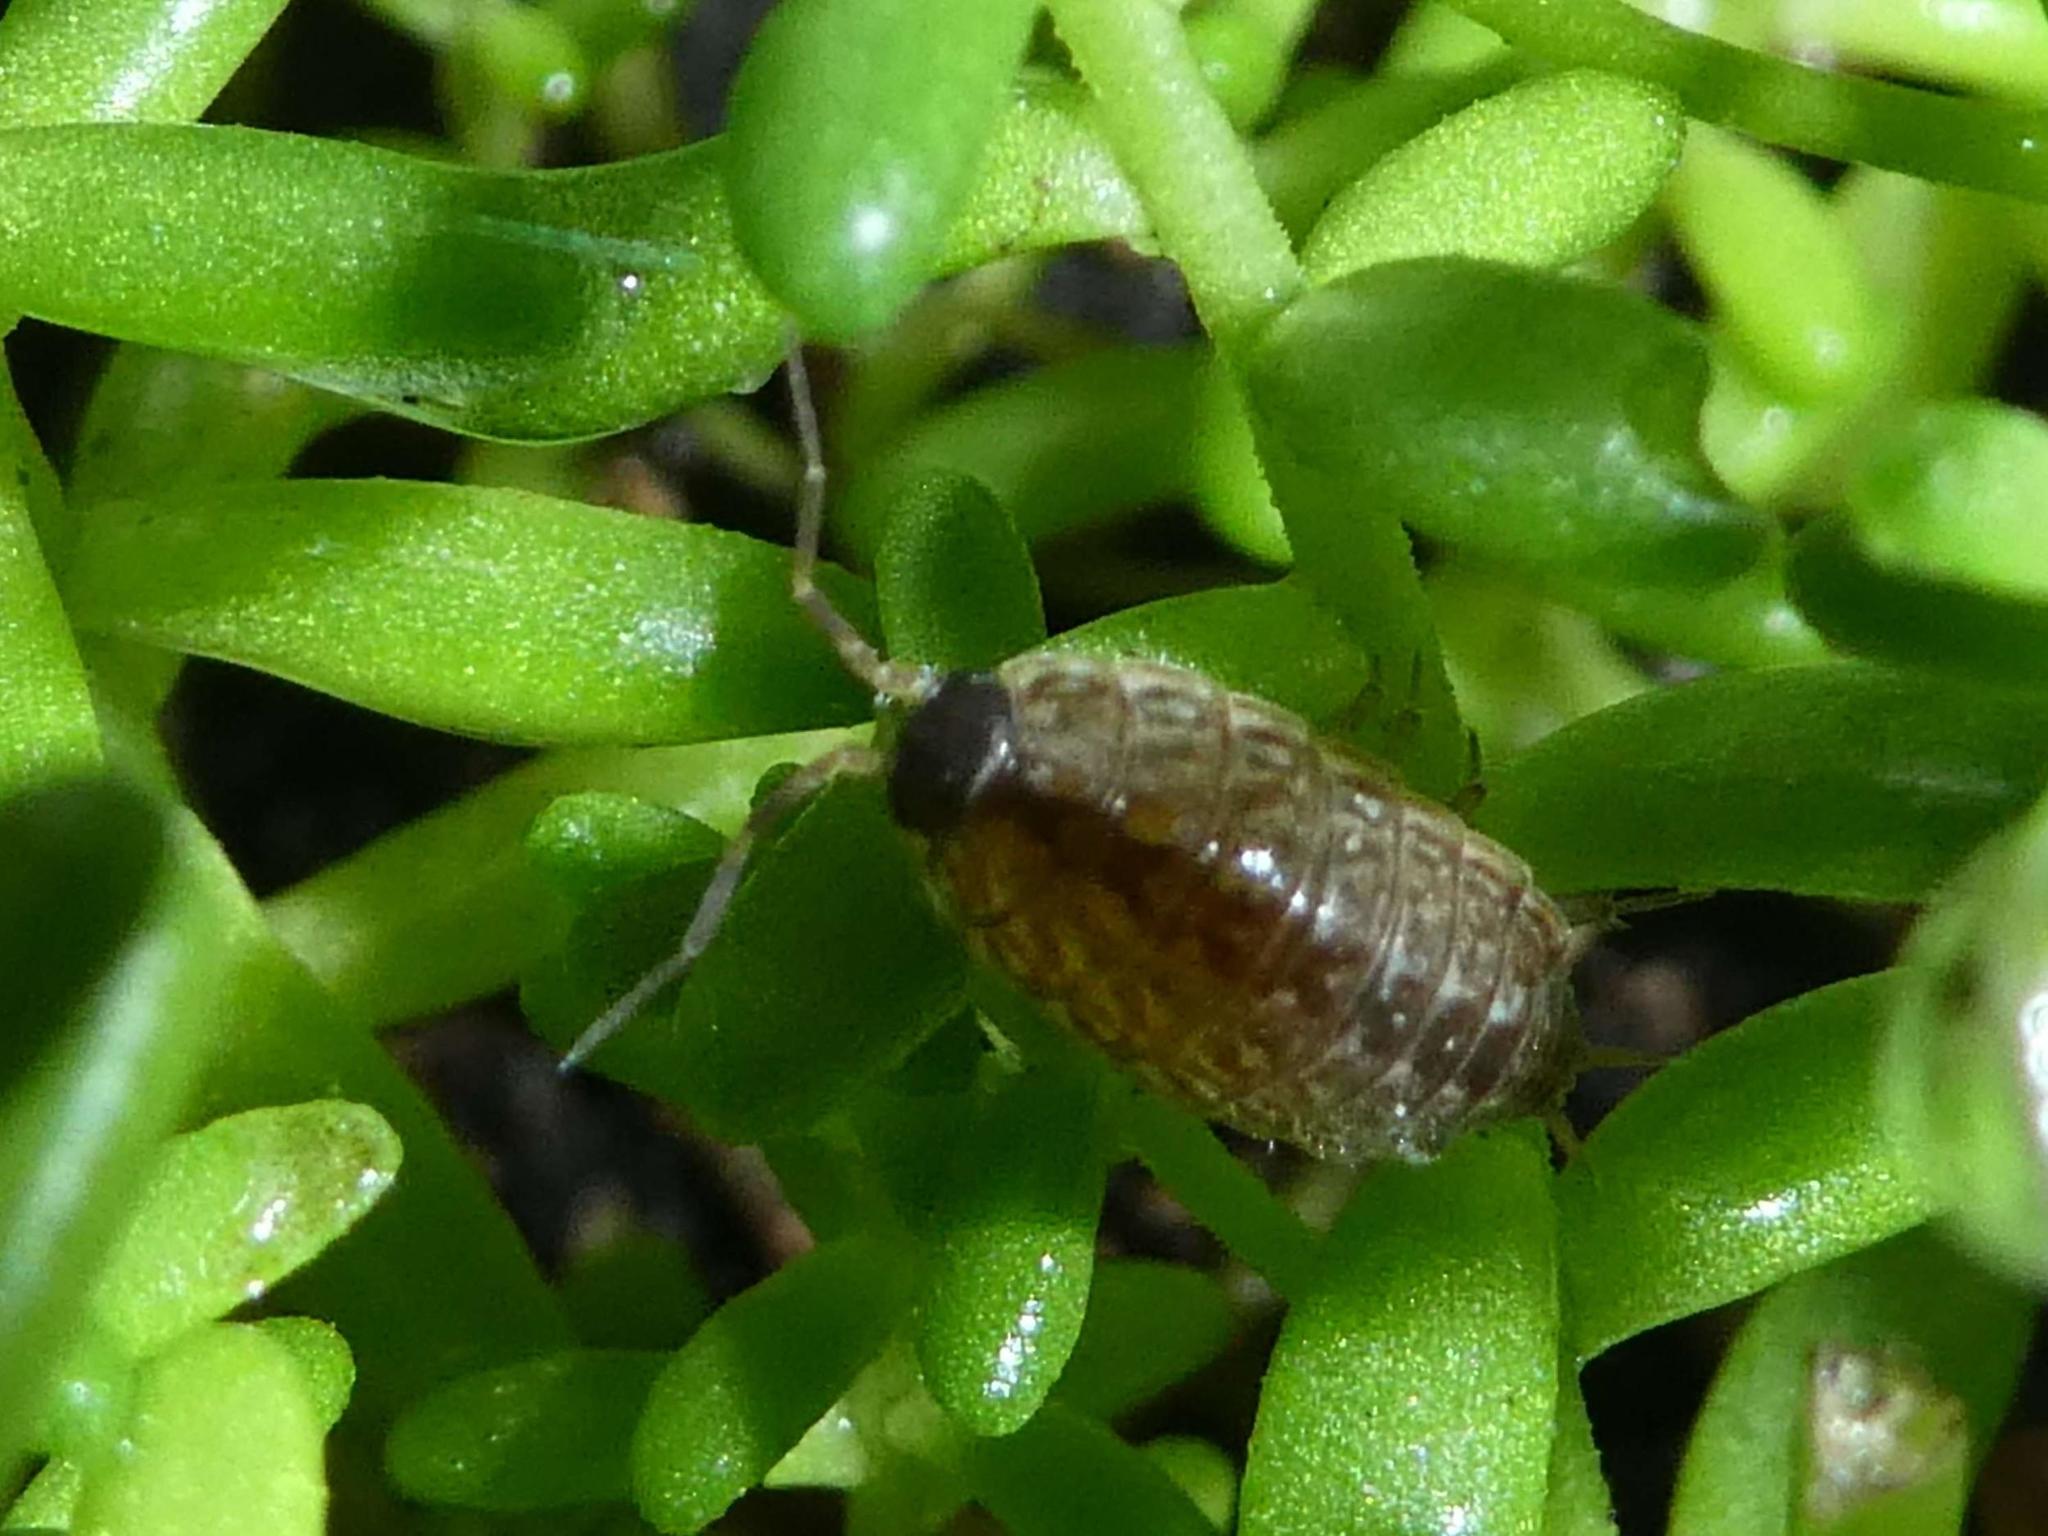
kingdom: Animalia
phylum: Arthropoda
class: Malacostraca
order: Isopoda
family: Philosciidae
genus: Philoscia
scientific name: Philoscia muscorum
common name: Common striped woodlouse
